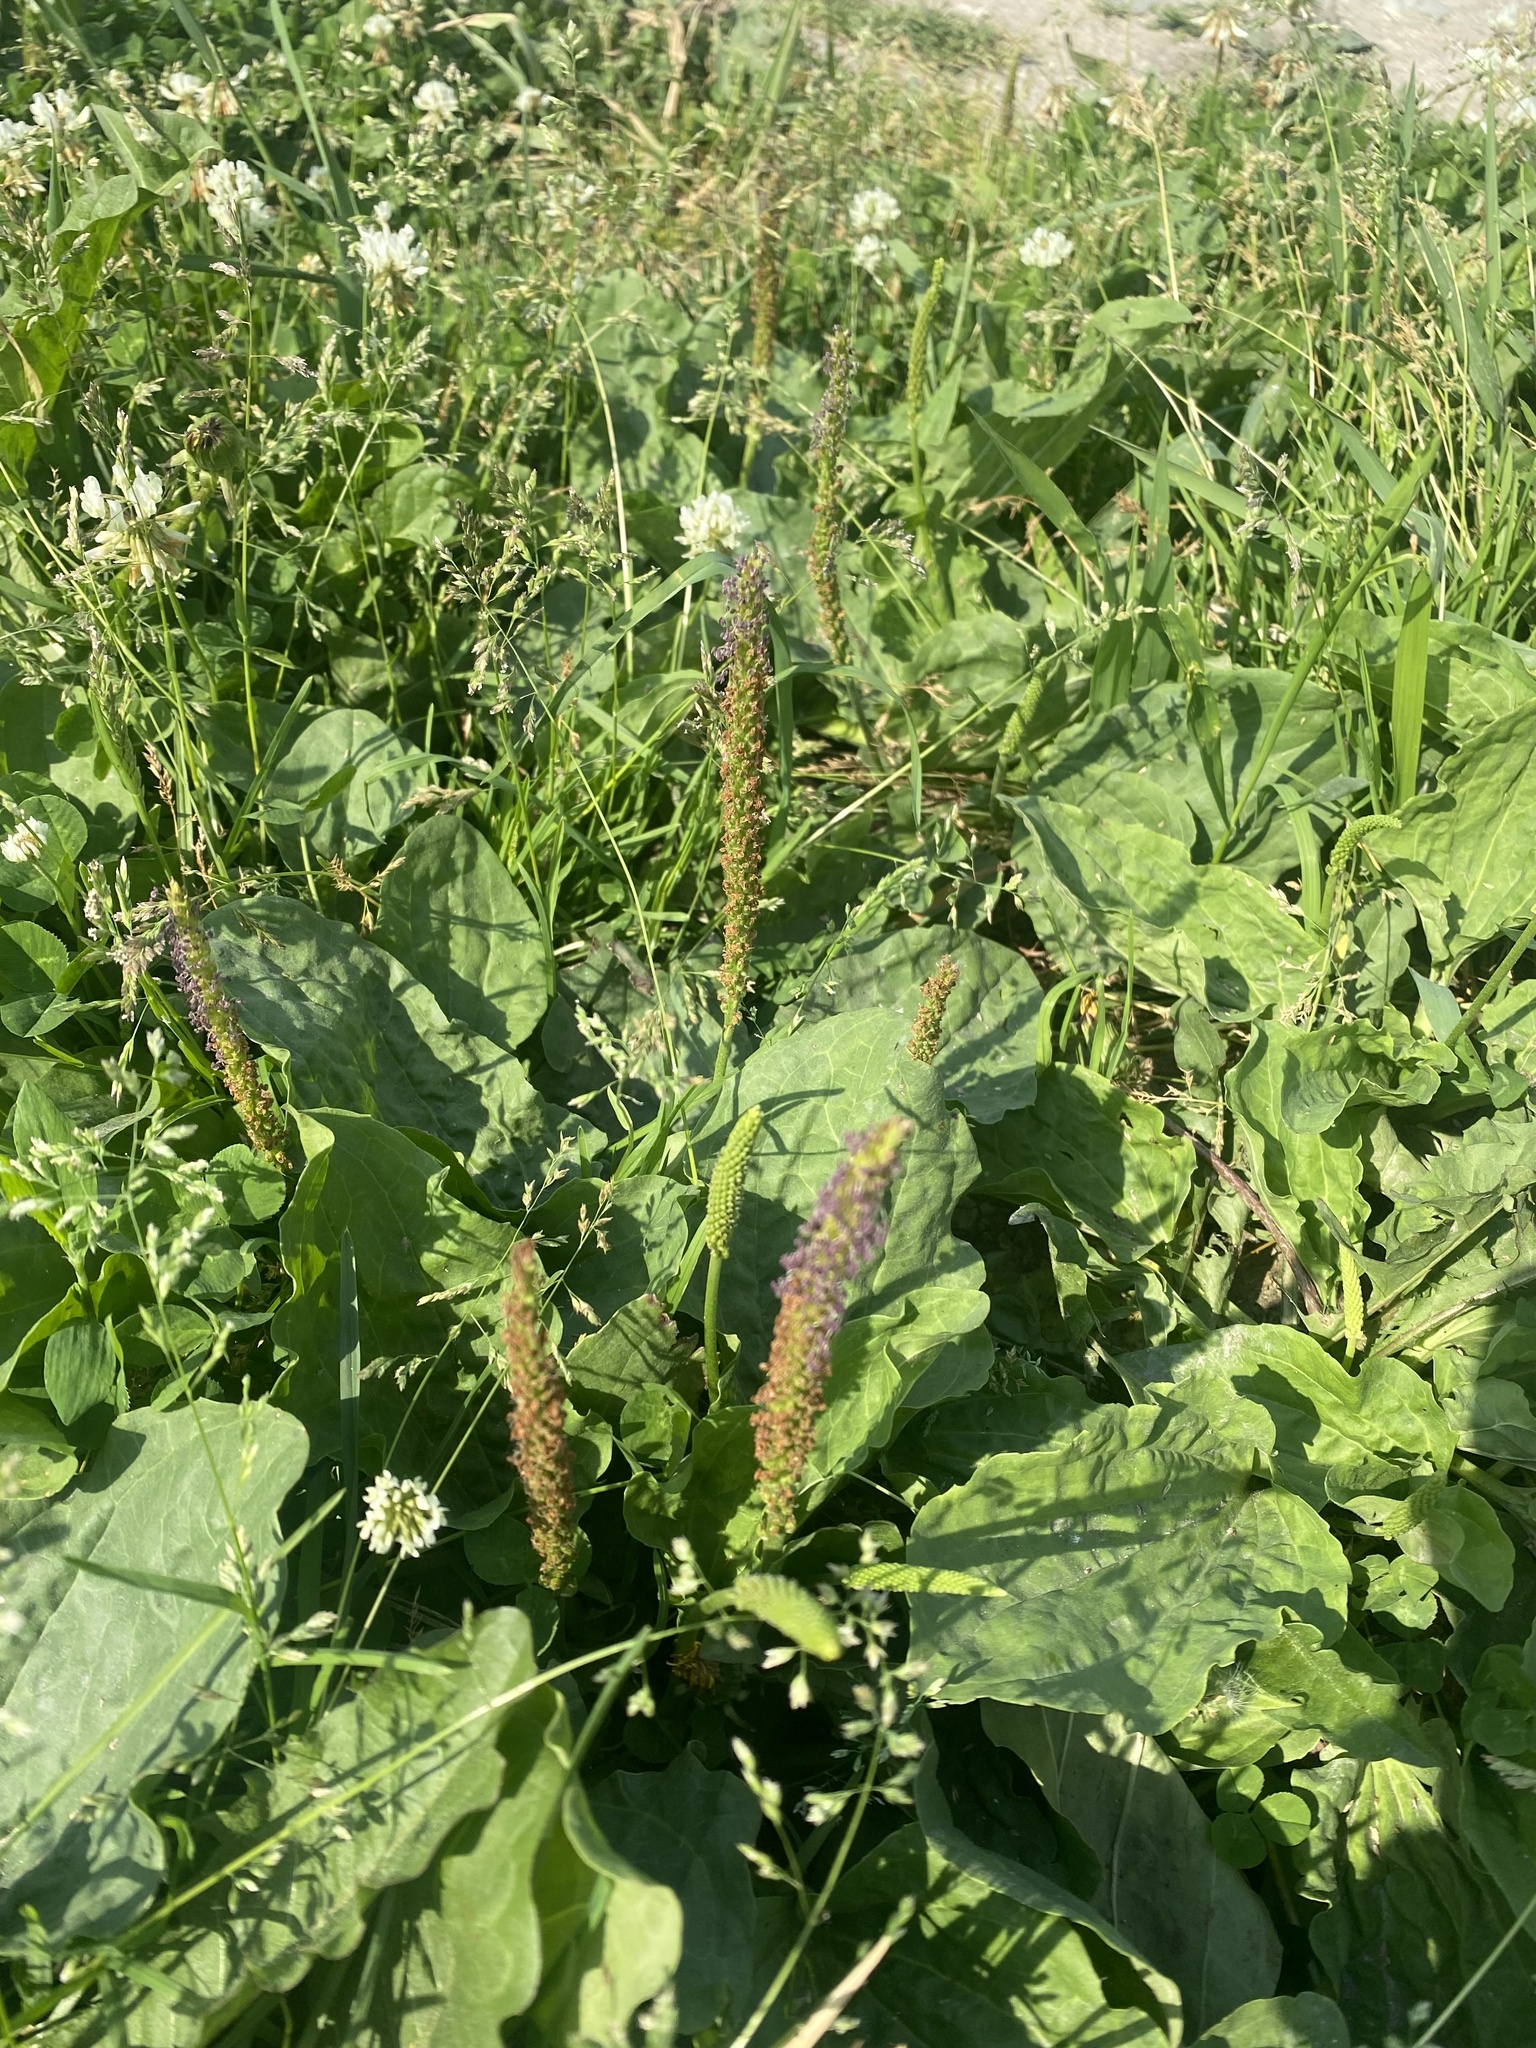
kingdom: Plantae
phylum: Tracheophyta
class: Magnoliopsida
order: Lamiales
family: Plantaginaceae
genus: Plantago
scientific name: Plantago major
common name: Common plantain
